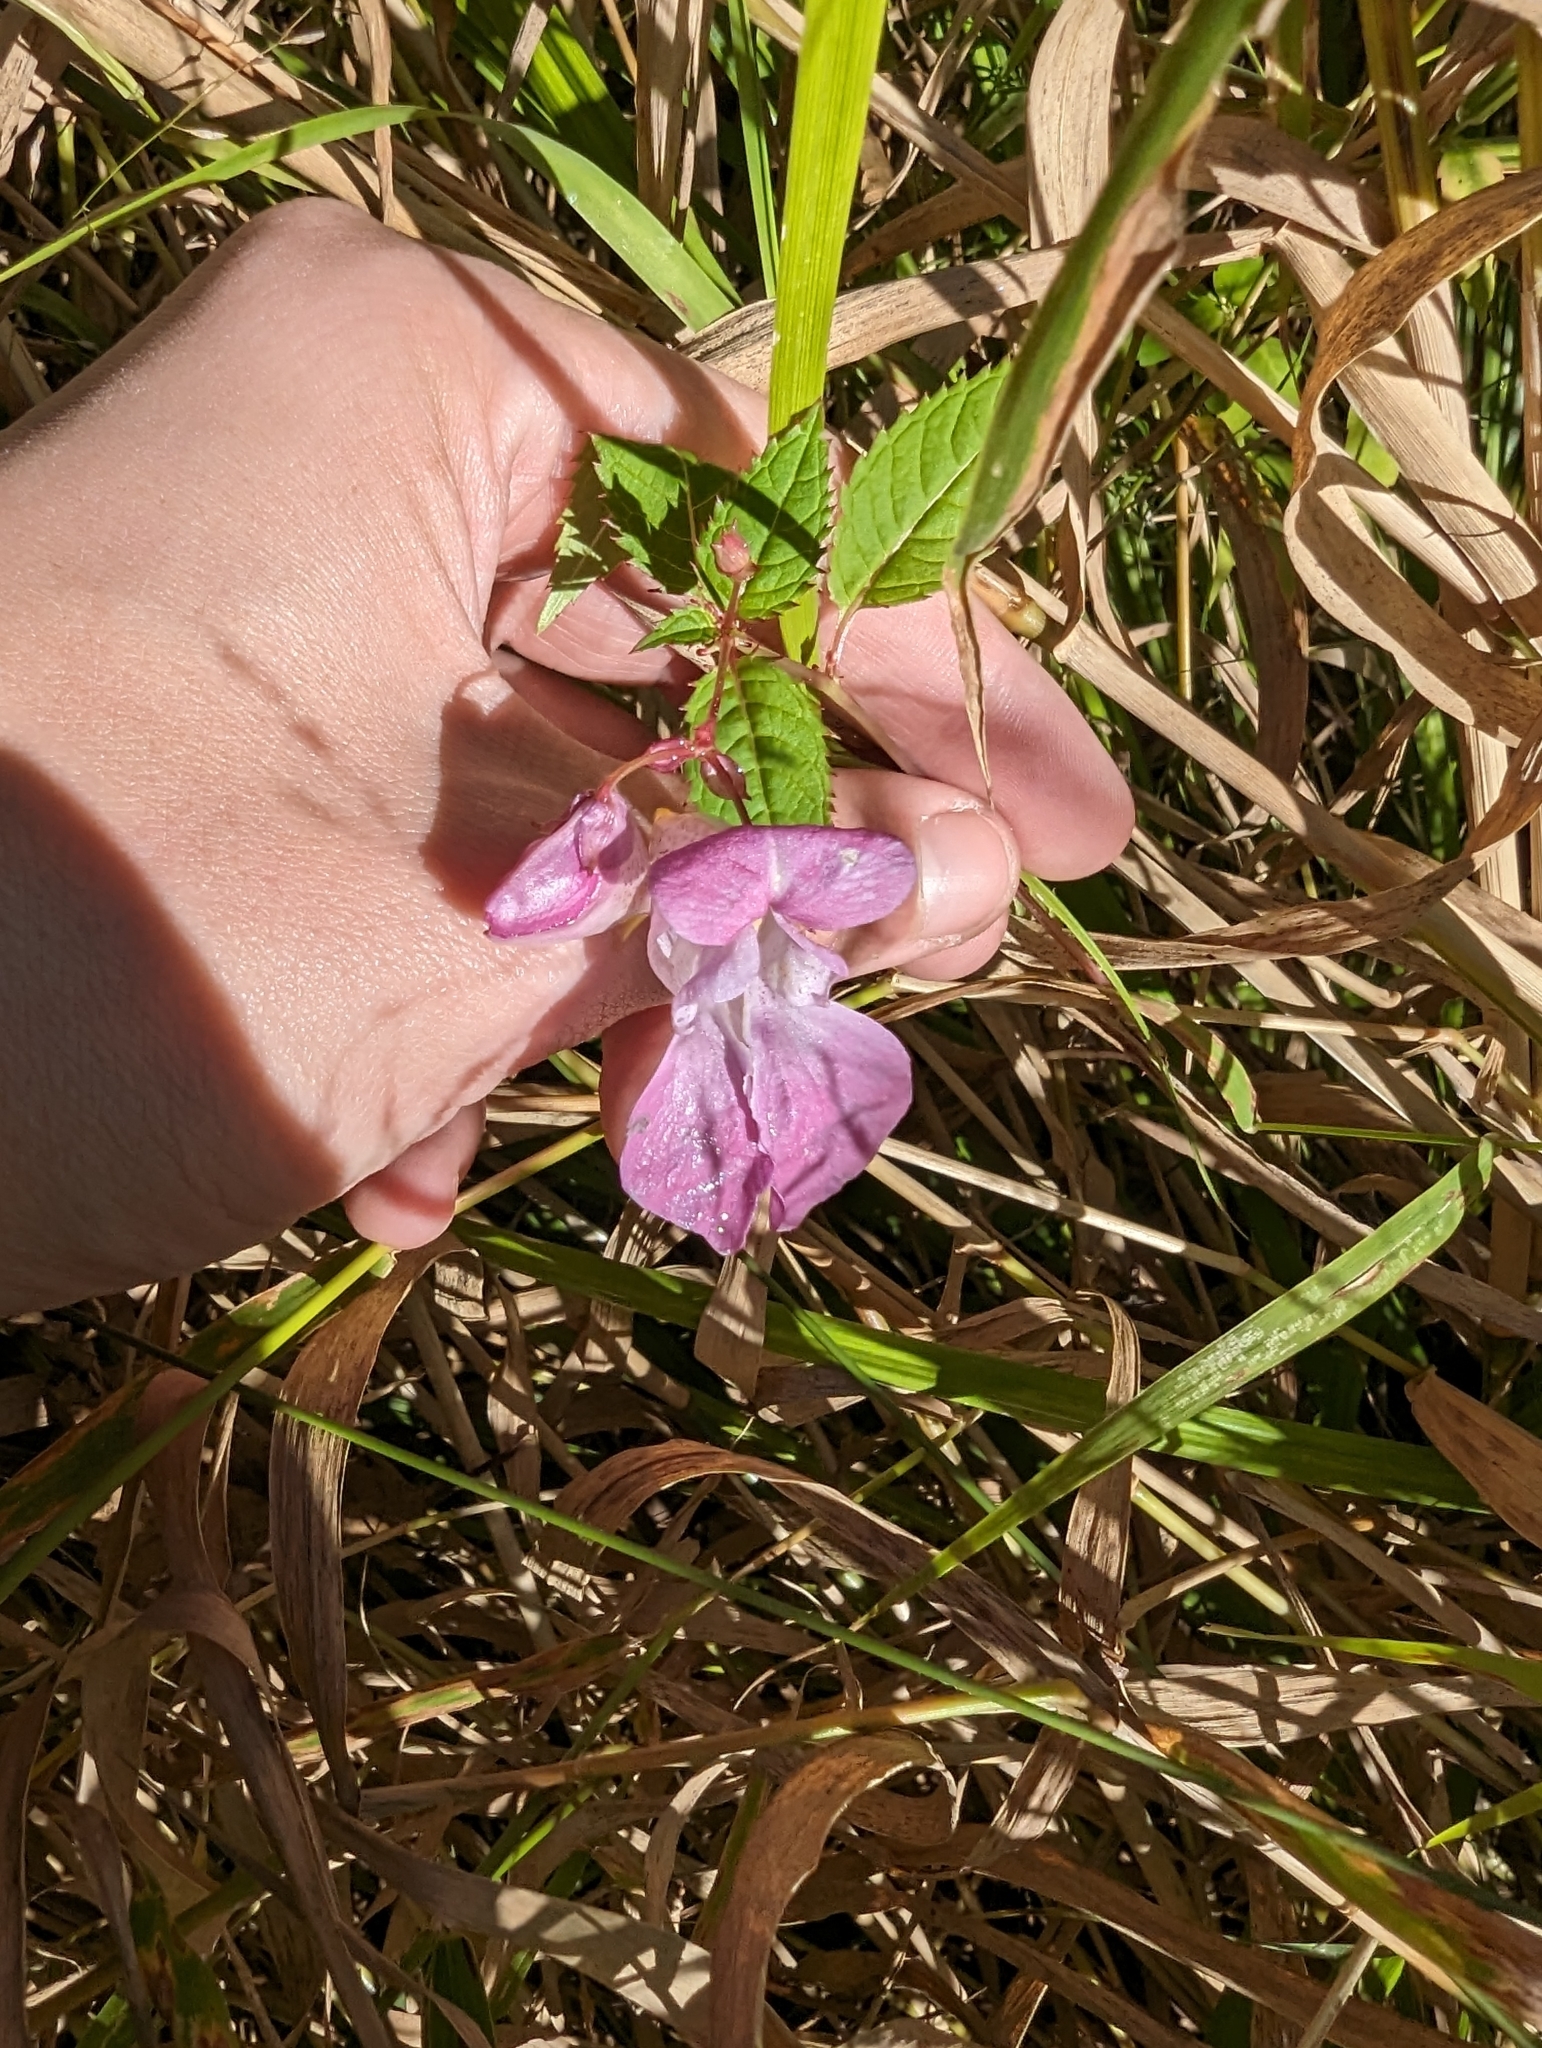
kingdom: Plantae
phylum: Tracheophyta
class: Magnoliopsida
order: Ericales
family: Balsaminaceae
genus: Impatiens
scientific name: Impatiens glandulifera
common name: Himalayan balsam
